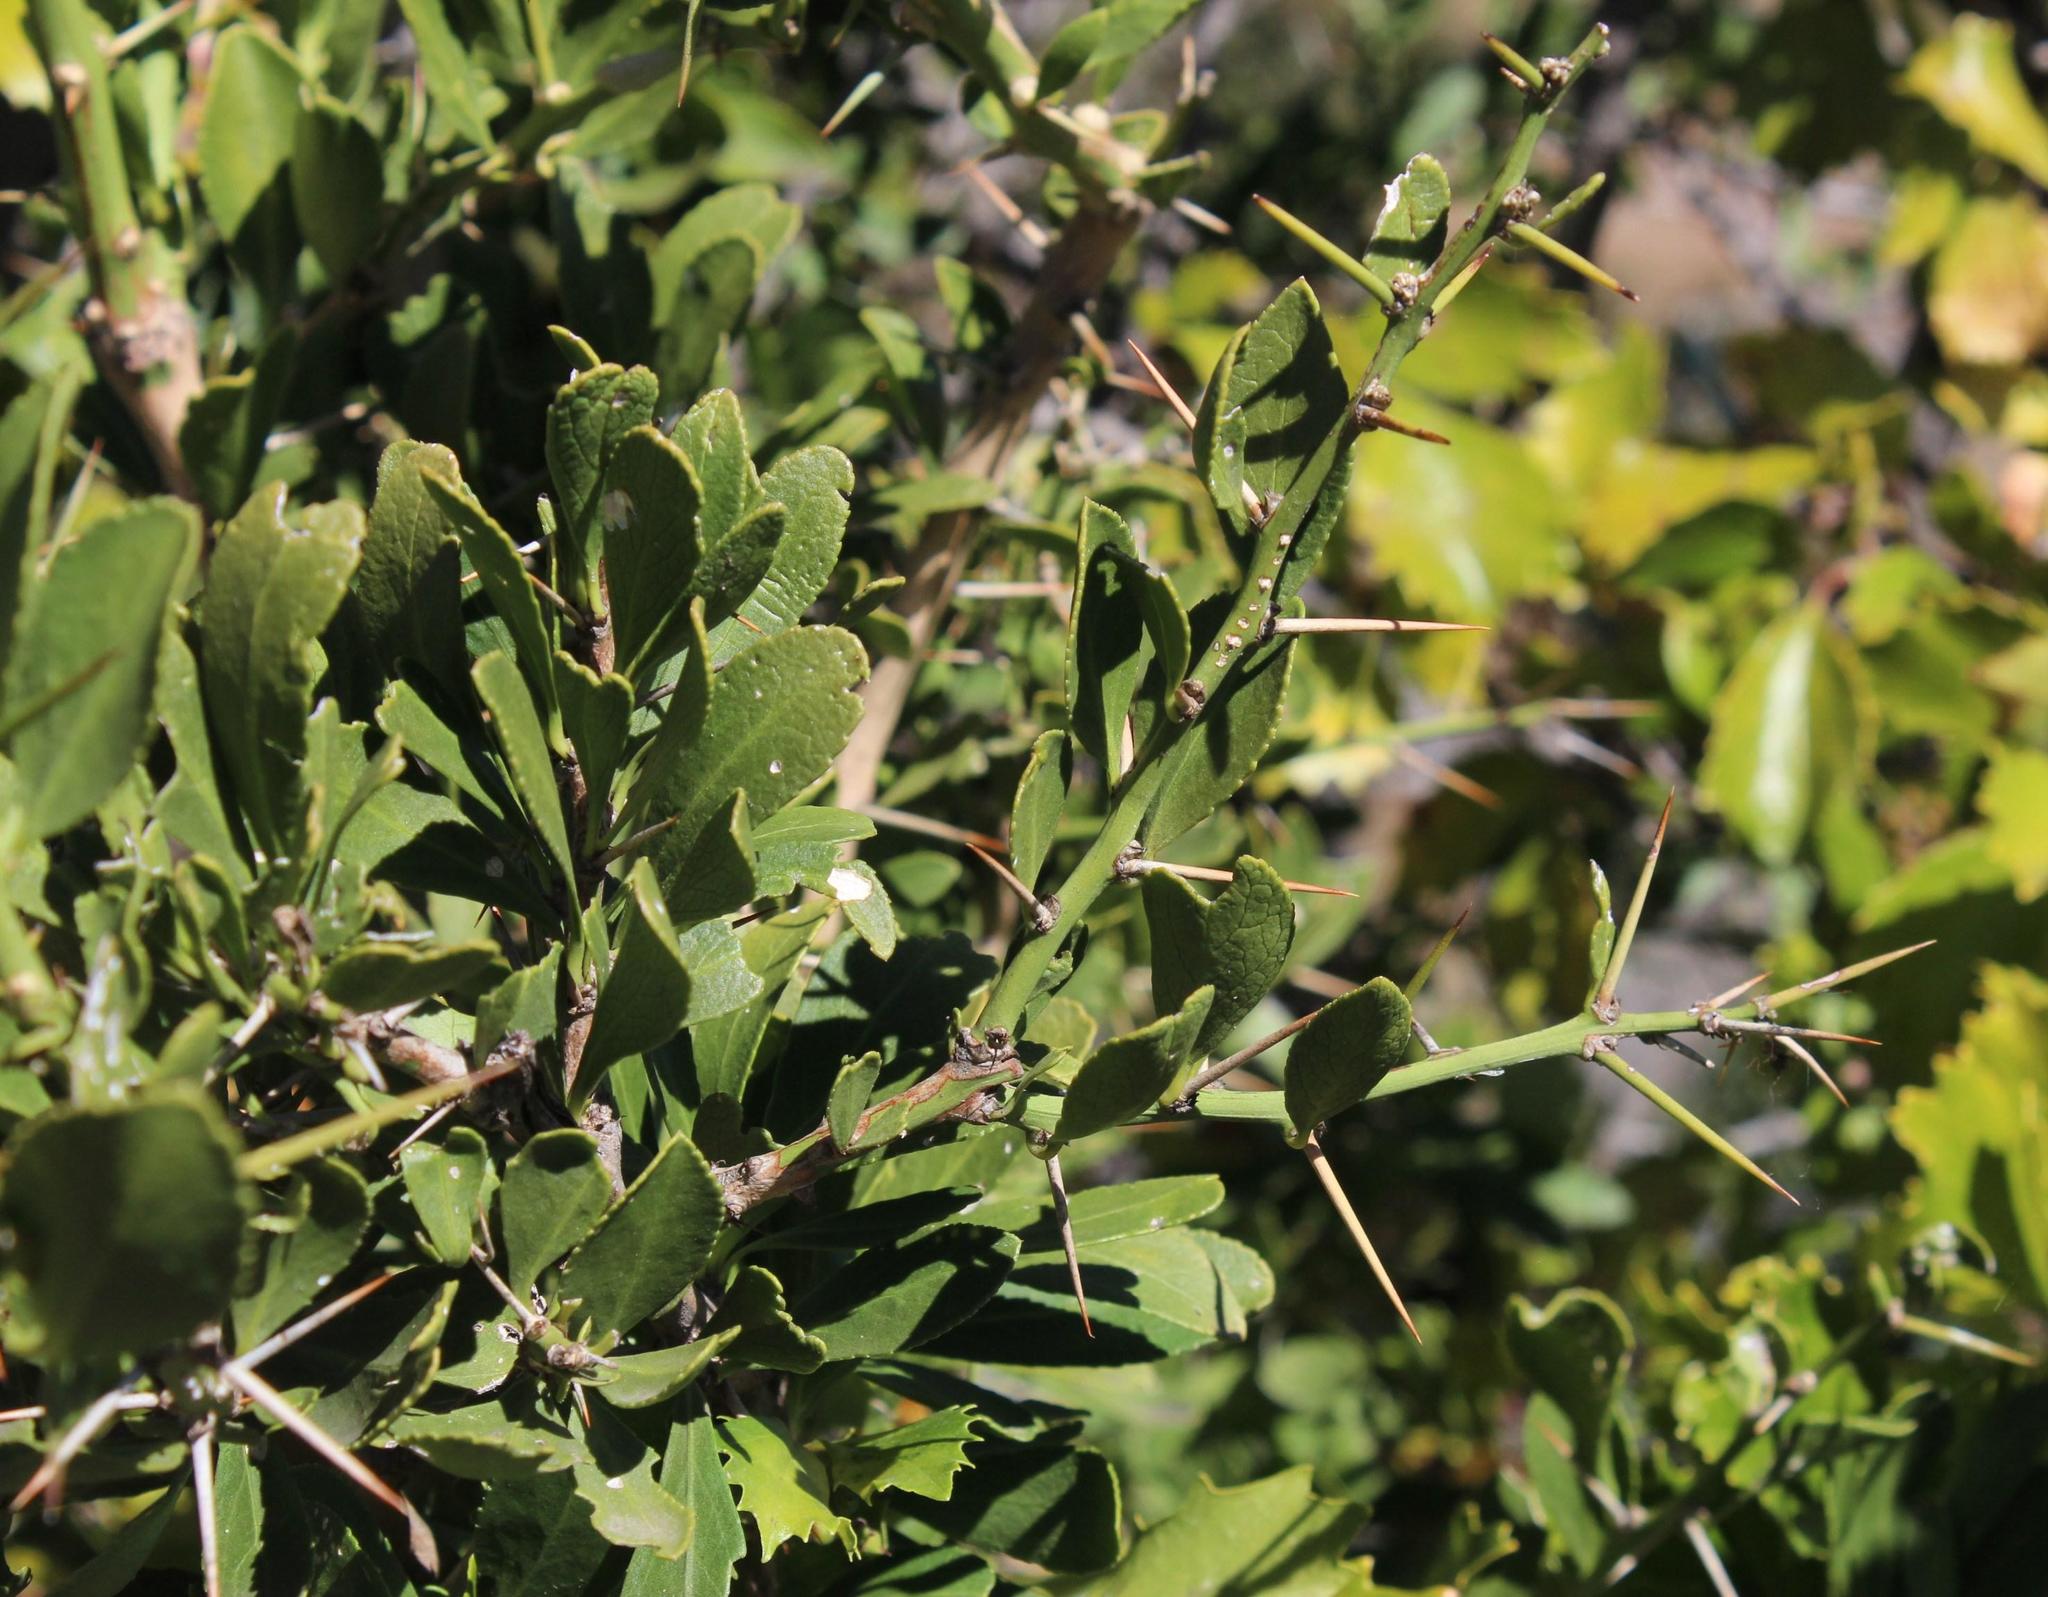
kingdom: Plantae
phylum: Tracheophyta
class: Magnoliopsida
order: Celastrales
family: Celastraceae
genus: Gymnosporia
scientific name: Gymnosporia buxifolia
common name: Common spike-thorn
